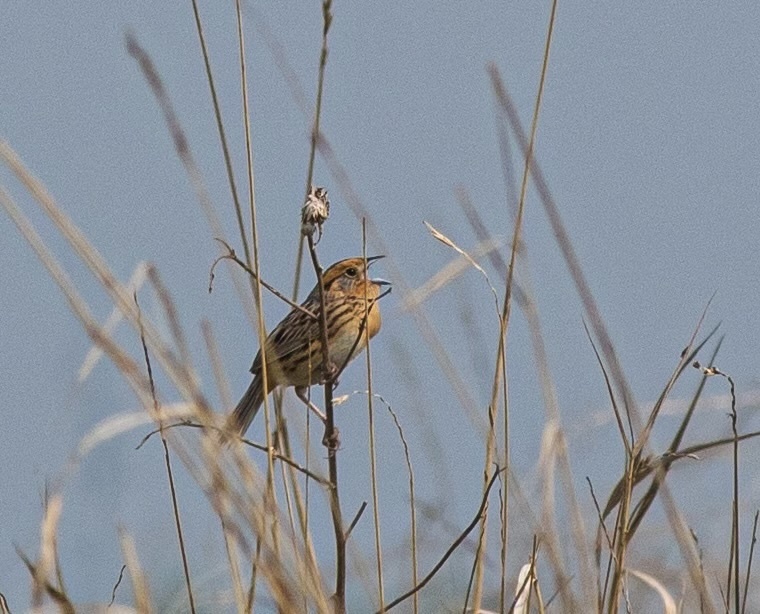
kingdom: Animalia
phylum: Chordata
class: Aves
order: Passeriformes
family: Passerellidae
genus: Ammospiza
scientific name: Ammospiza leconteii
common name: Le conte's sparrow
